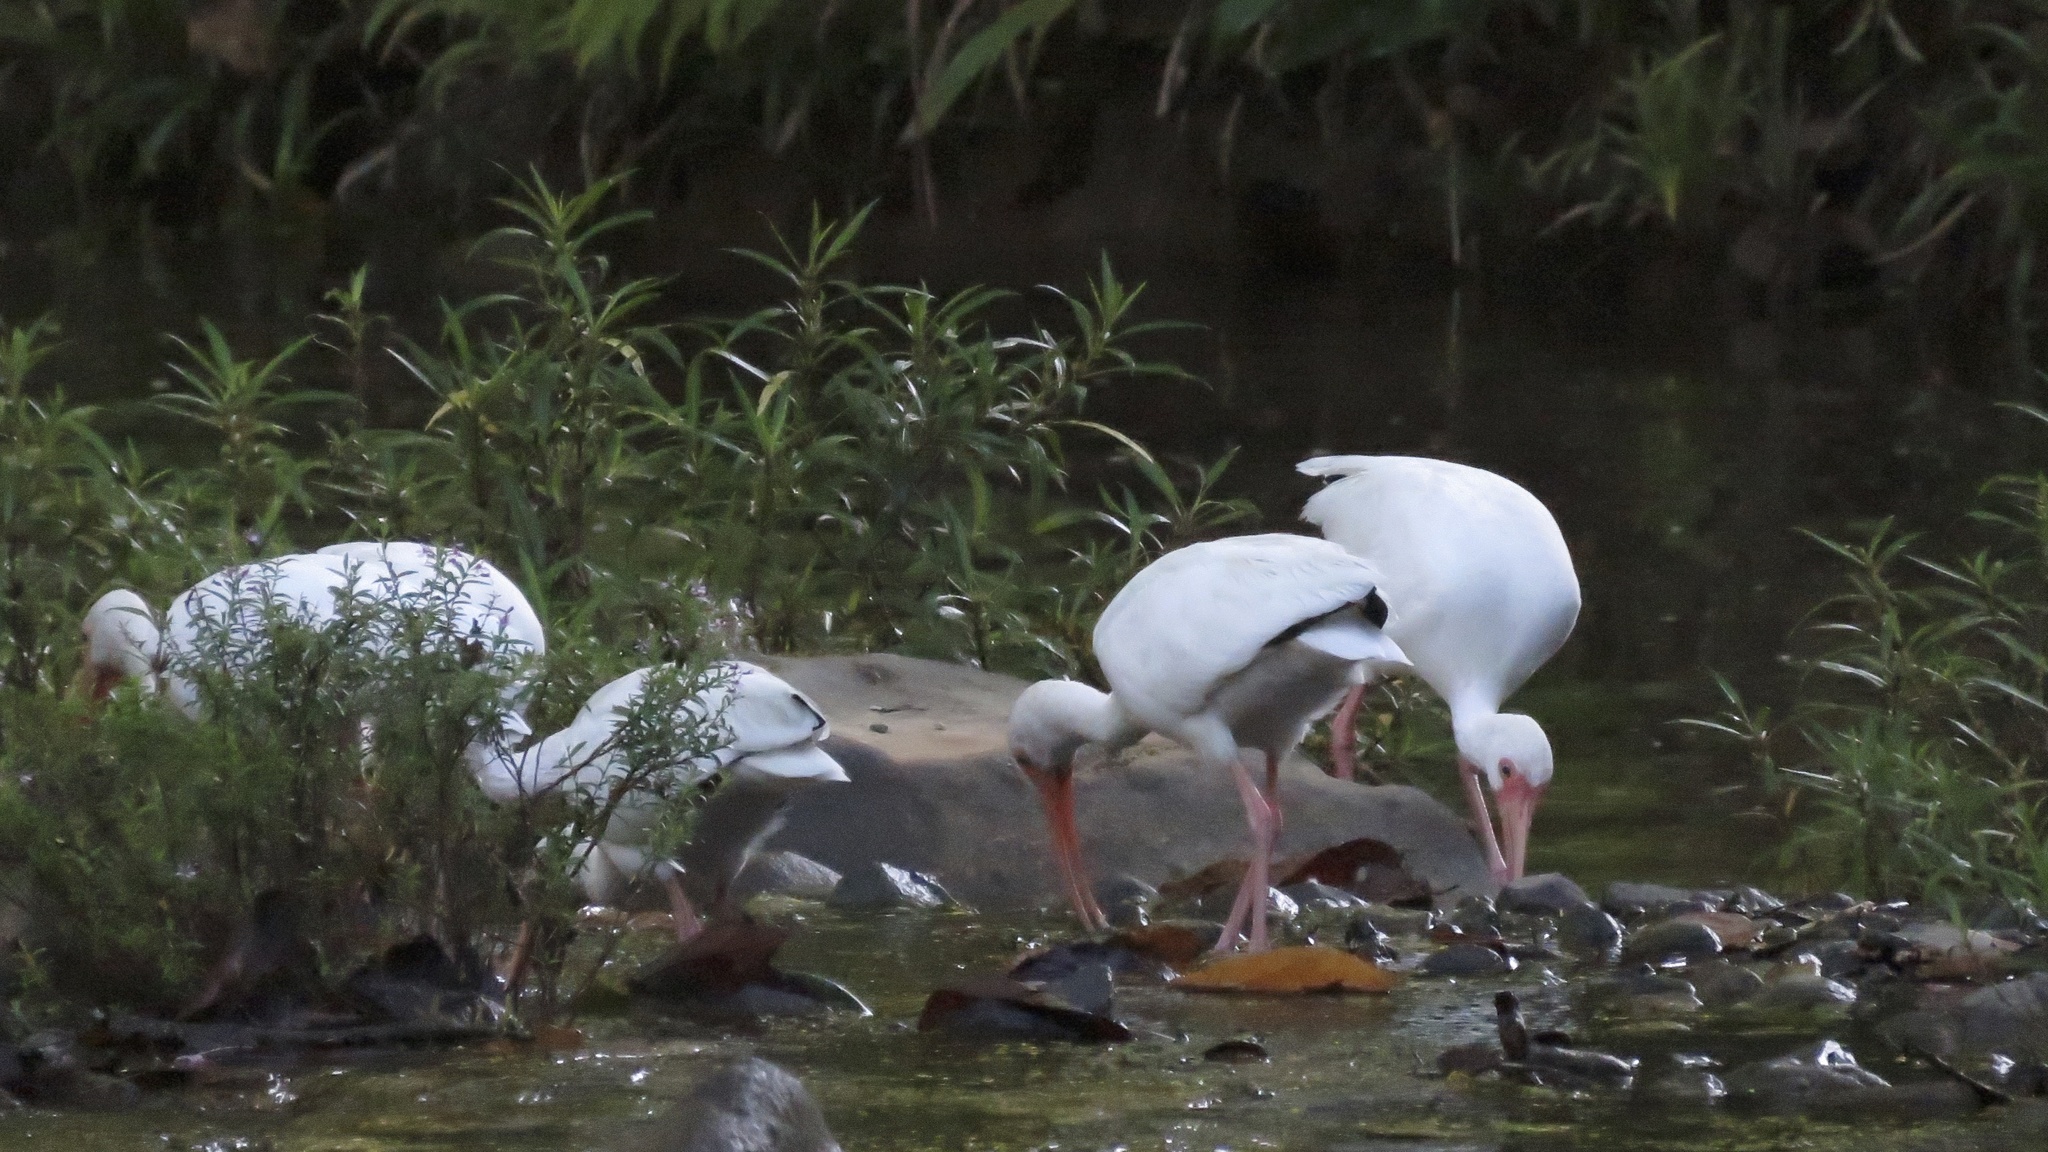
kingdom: Animalia
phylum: Chordata
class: Aves
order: Pelecaniformes
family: Threskiornithidae
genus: Eudocimus
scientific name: Eudocimus albus
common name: White ibis
